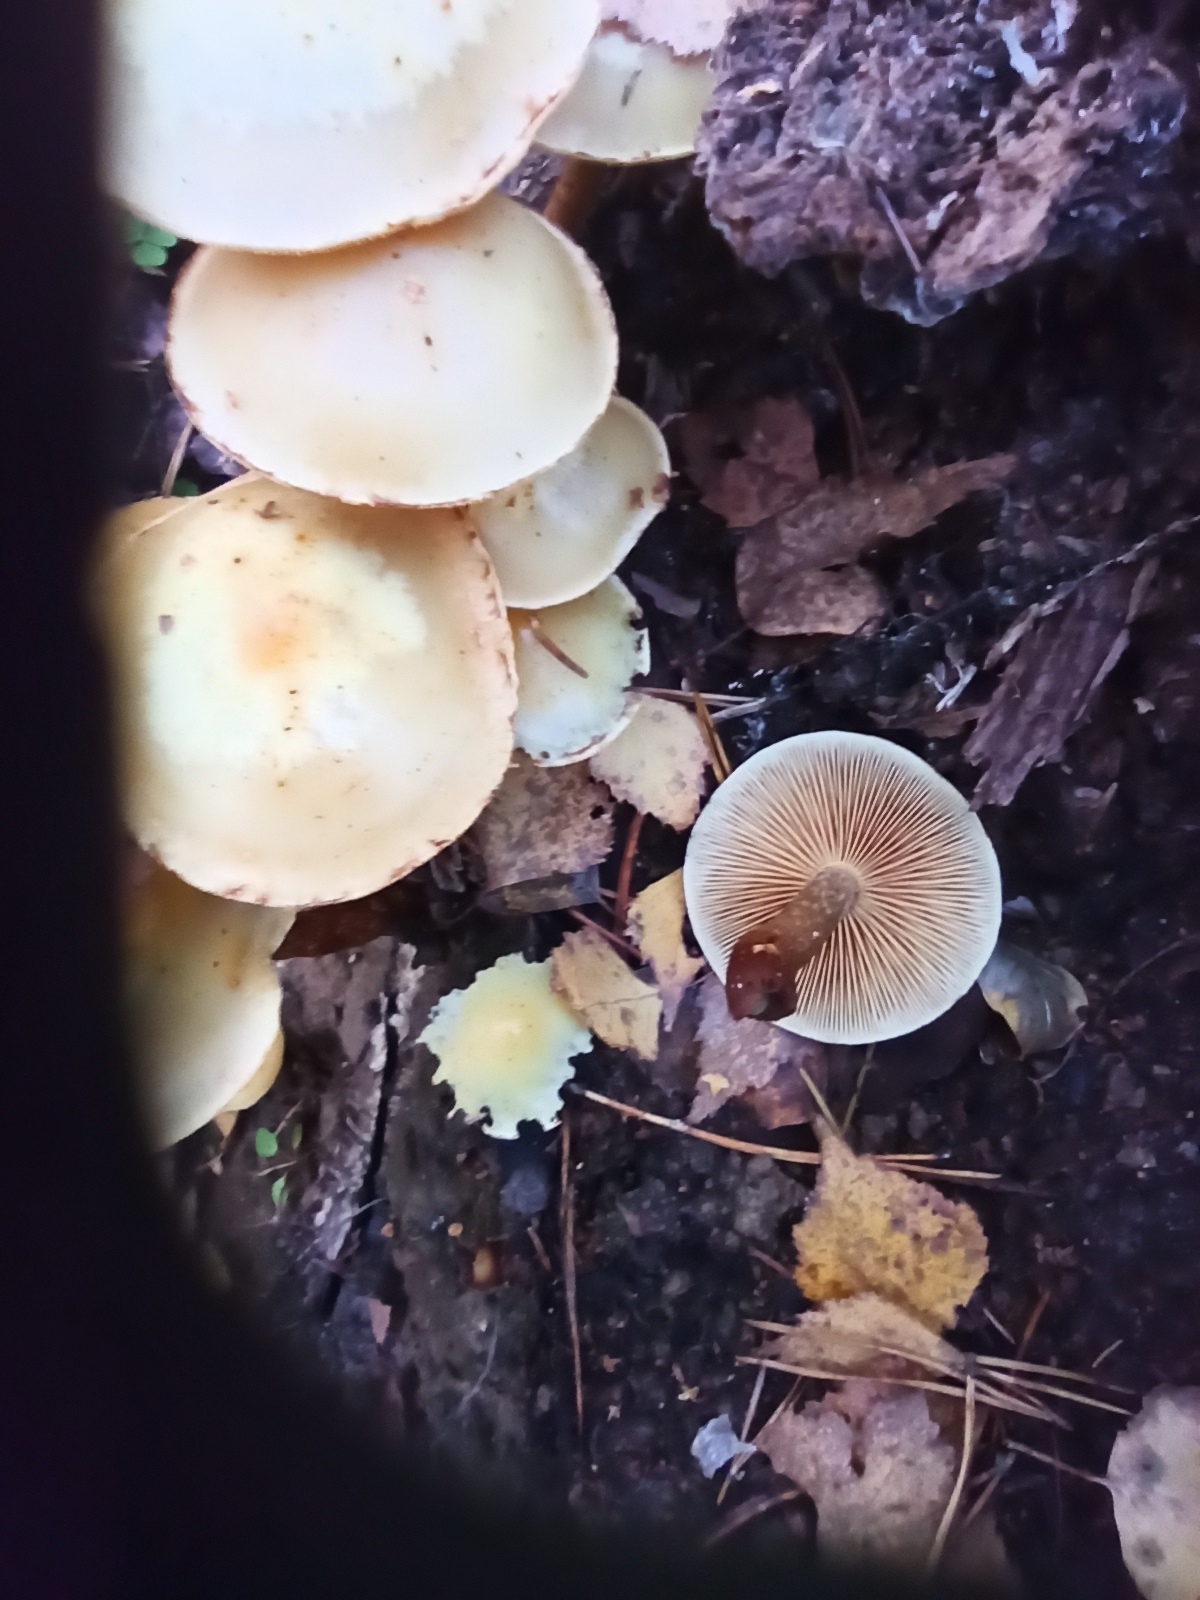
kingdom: Fungi
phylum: Basidiomycota
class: Agaricomycetes
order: Agaricales
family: Strophariaceae
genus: Hypholoma
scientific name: Hypholoma capnoides
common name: Conifer tuft
